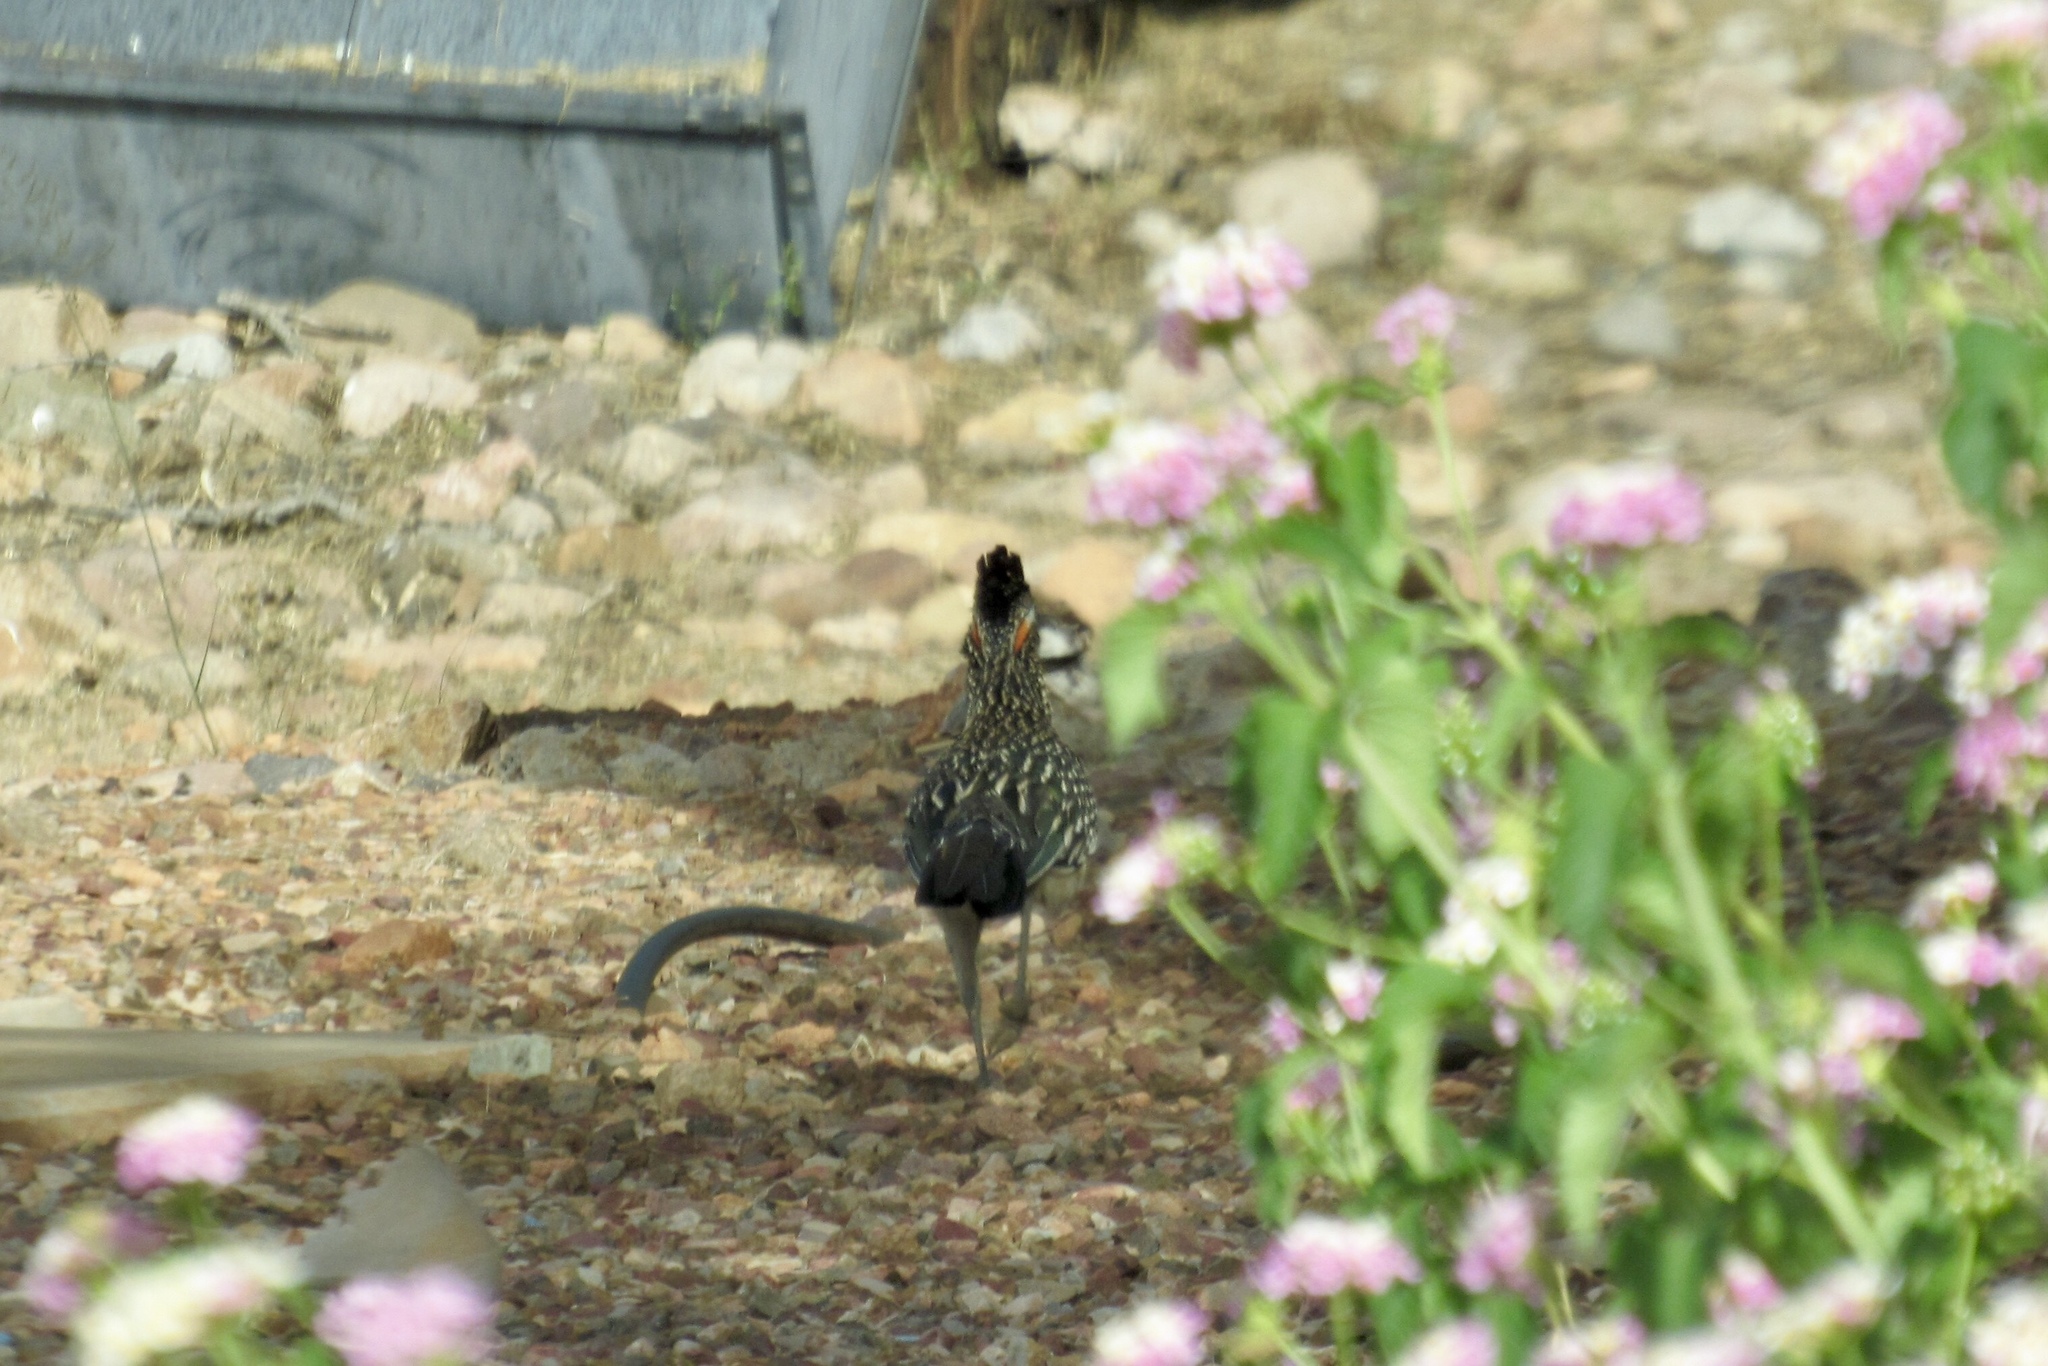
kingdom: Animalia
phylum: Chordata
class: Aves
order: Cuculiformes
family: Cuculidae
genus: Geococcyx
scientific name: Geococcyx californianus
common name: Greater roadrunner
